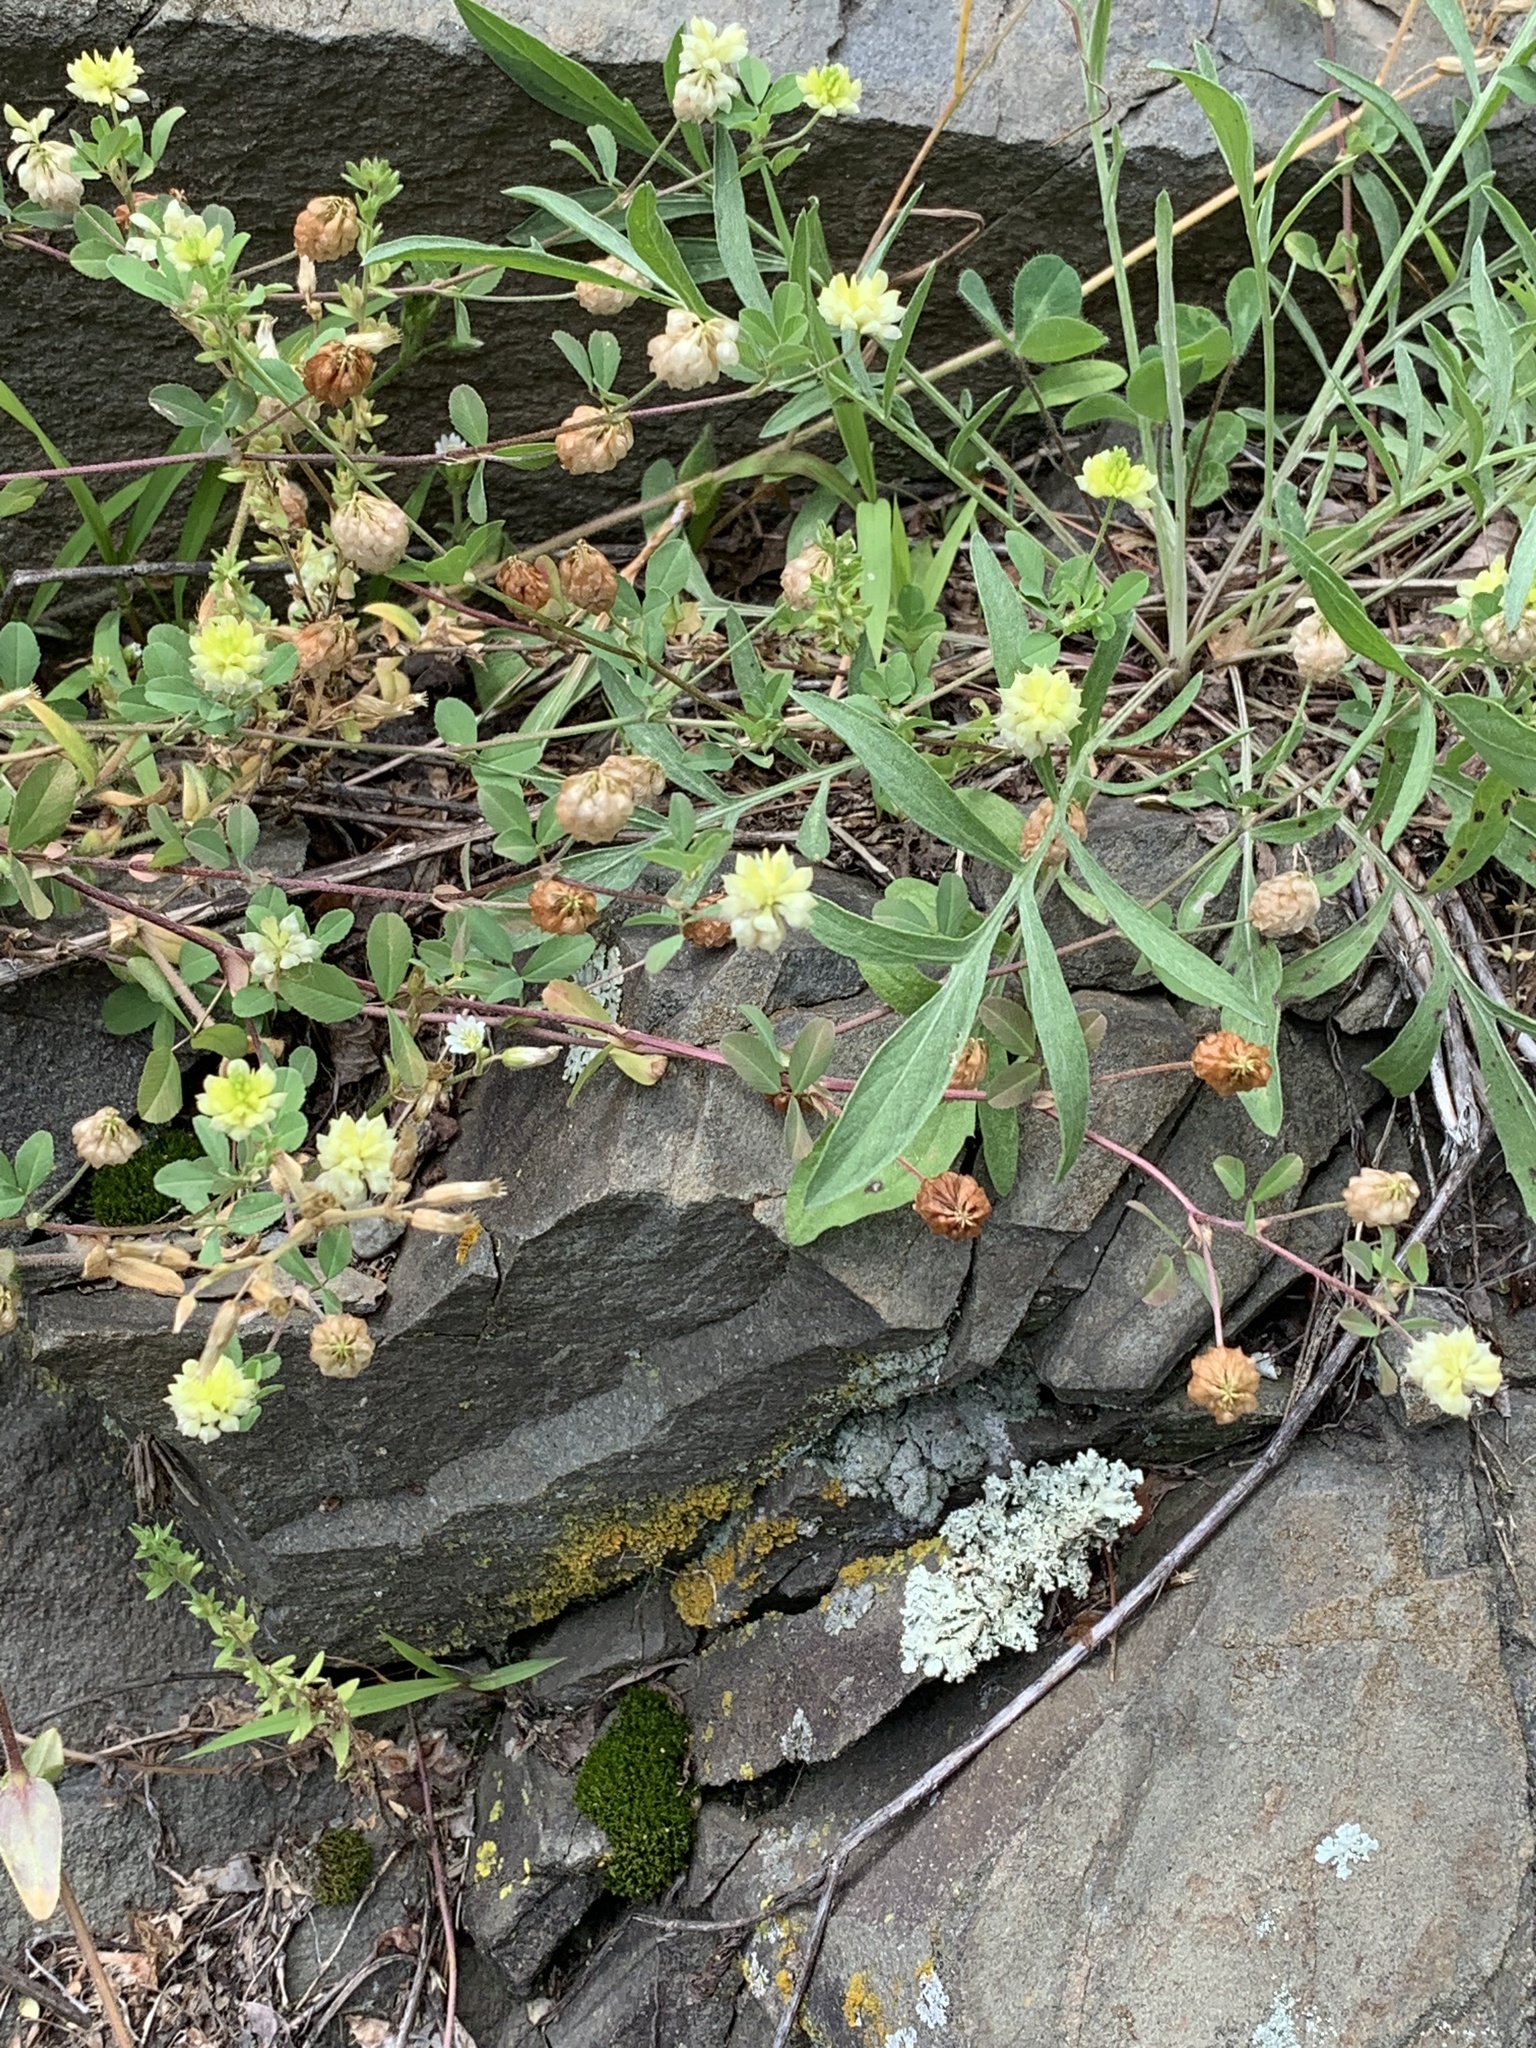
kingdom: Plantae
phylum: Tracheophyta
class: Magnoliopsida
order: Fabales
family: Fabaceae
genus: Trifolium
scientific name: Trifolium campestre
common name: Field clover
